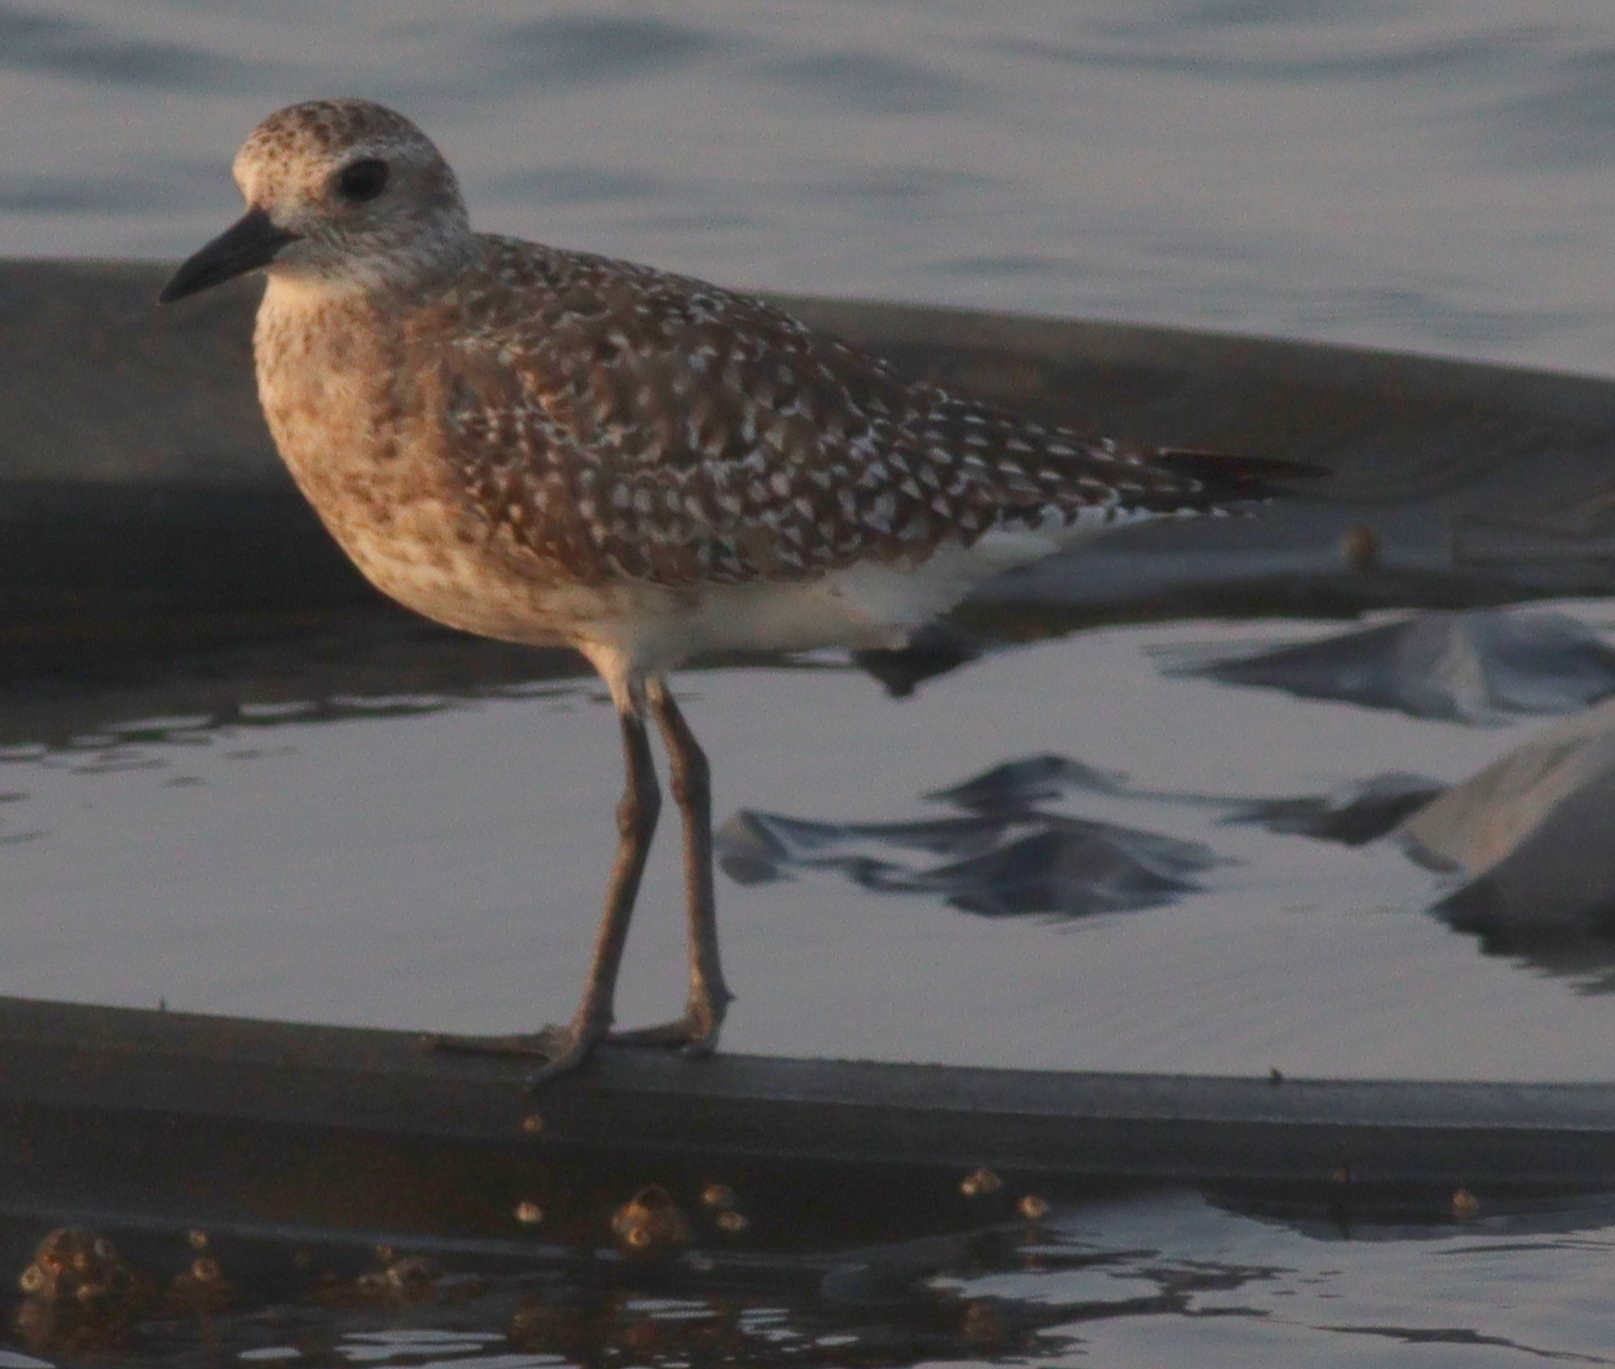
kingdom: Animalia
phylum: Chordata
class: Aves
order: Charadriiformes
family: Charadriidae
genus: Pluvialis
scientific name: Pluvialis squatarola
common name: Grey plover
